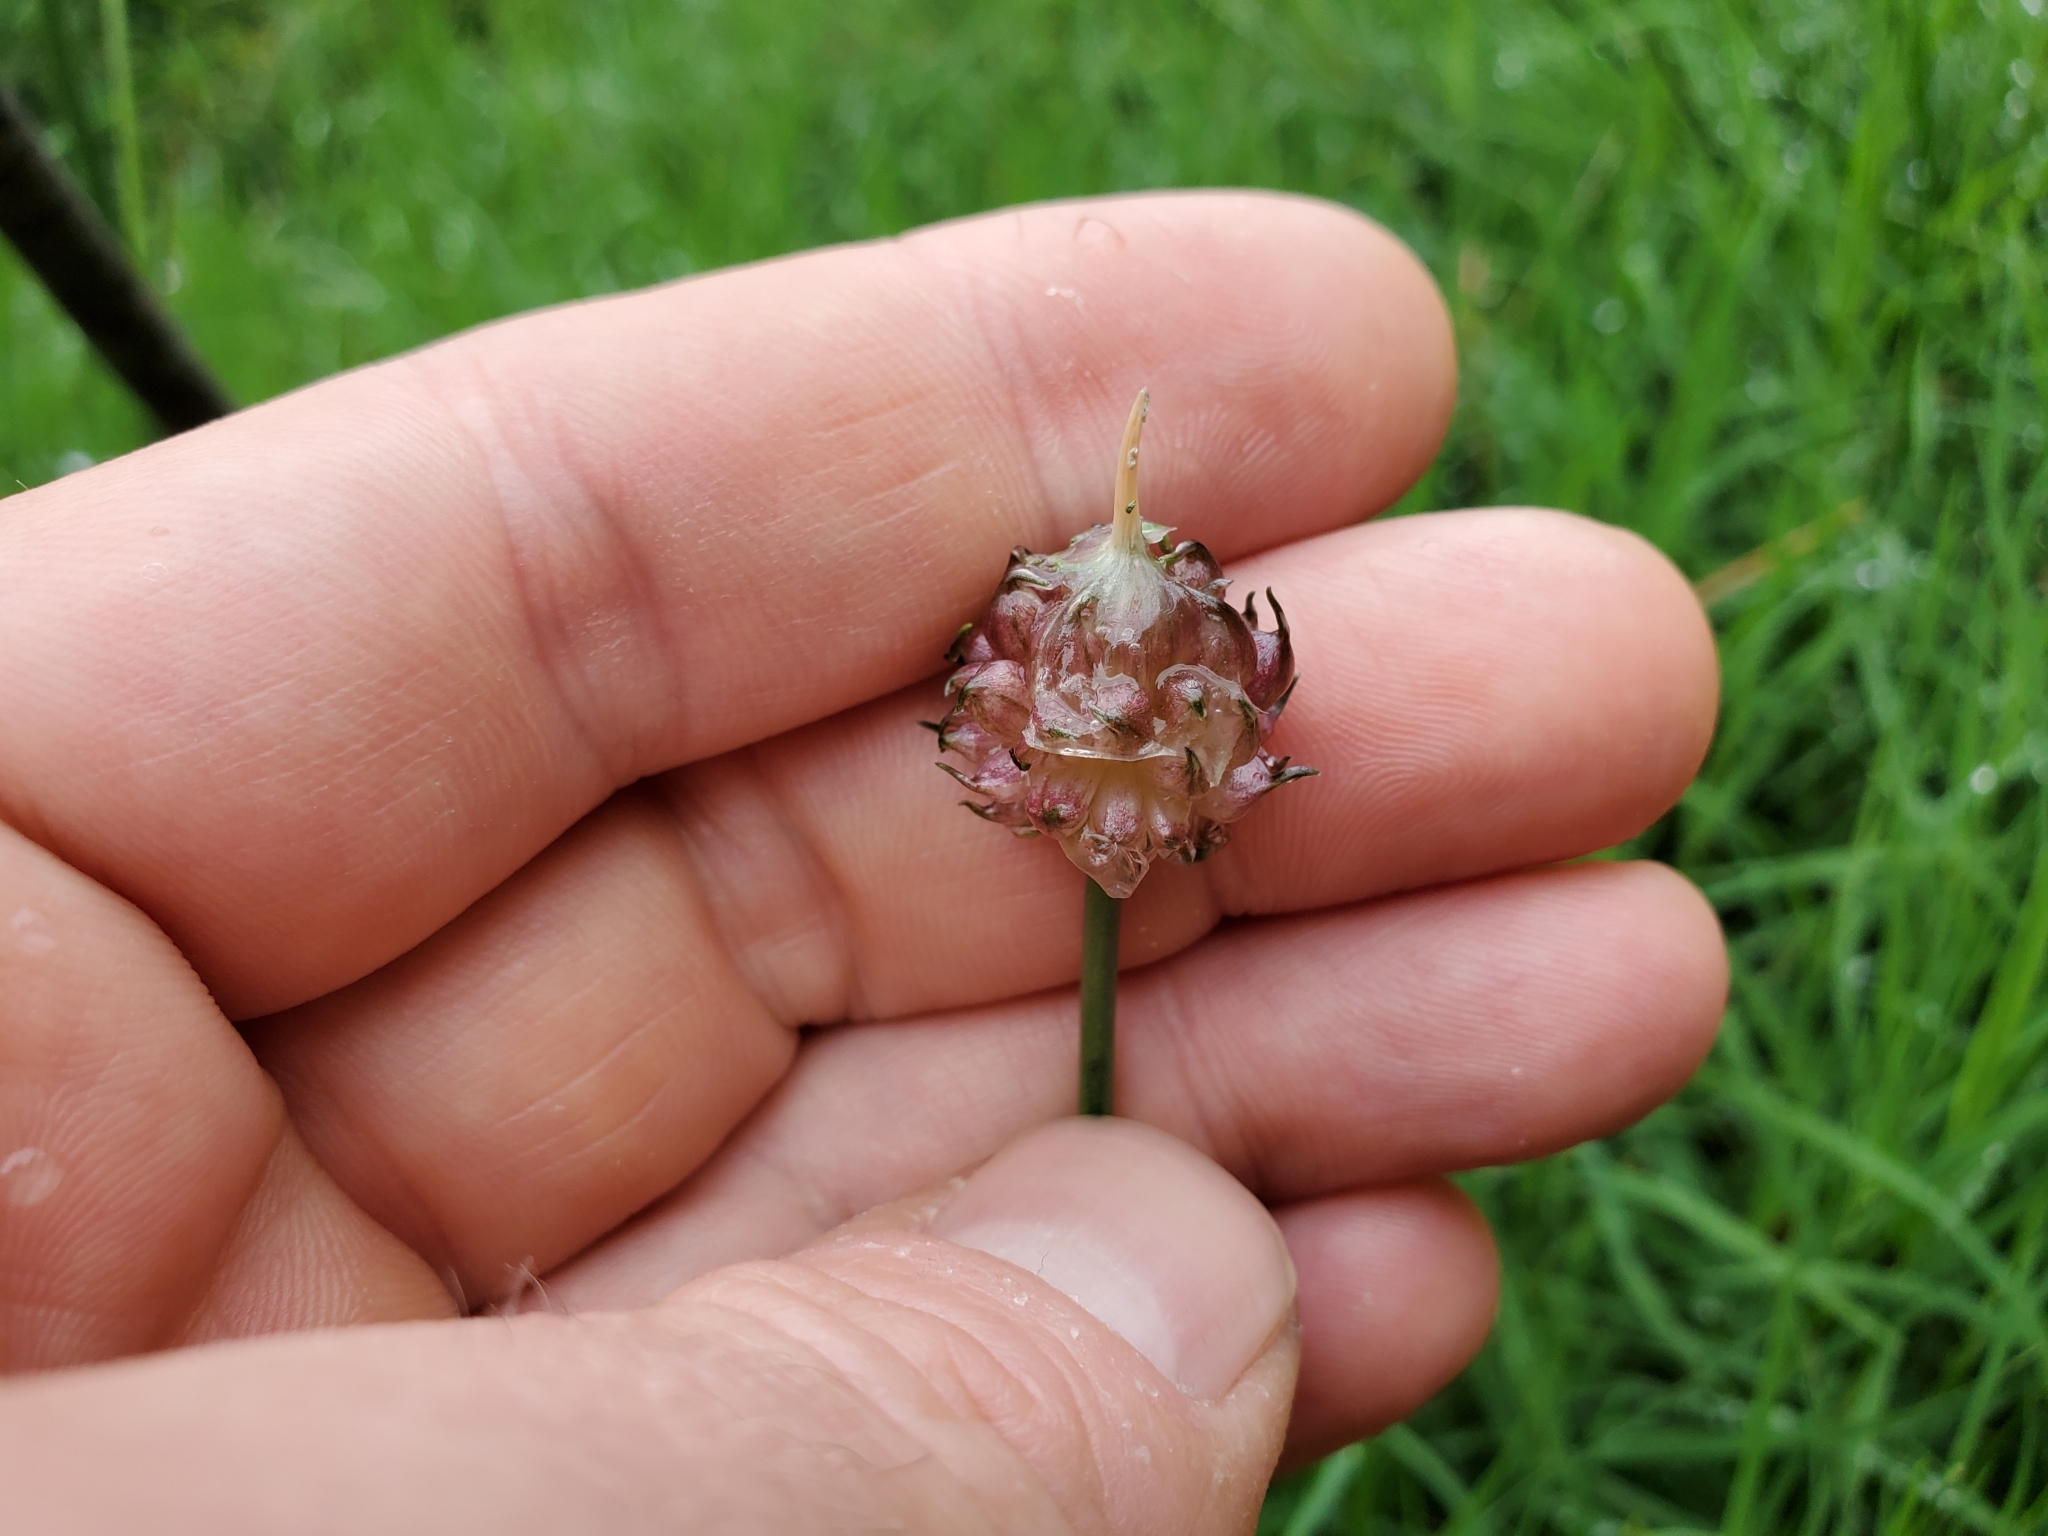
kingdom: Plantae
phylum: Tracheophyta
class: Liliopsida
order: Asparagales
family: Amaryllidaceae
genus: Allium
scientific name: Allium vineale
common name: Crow garlic
